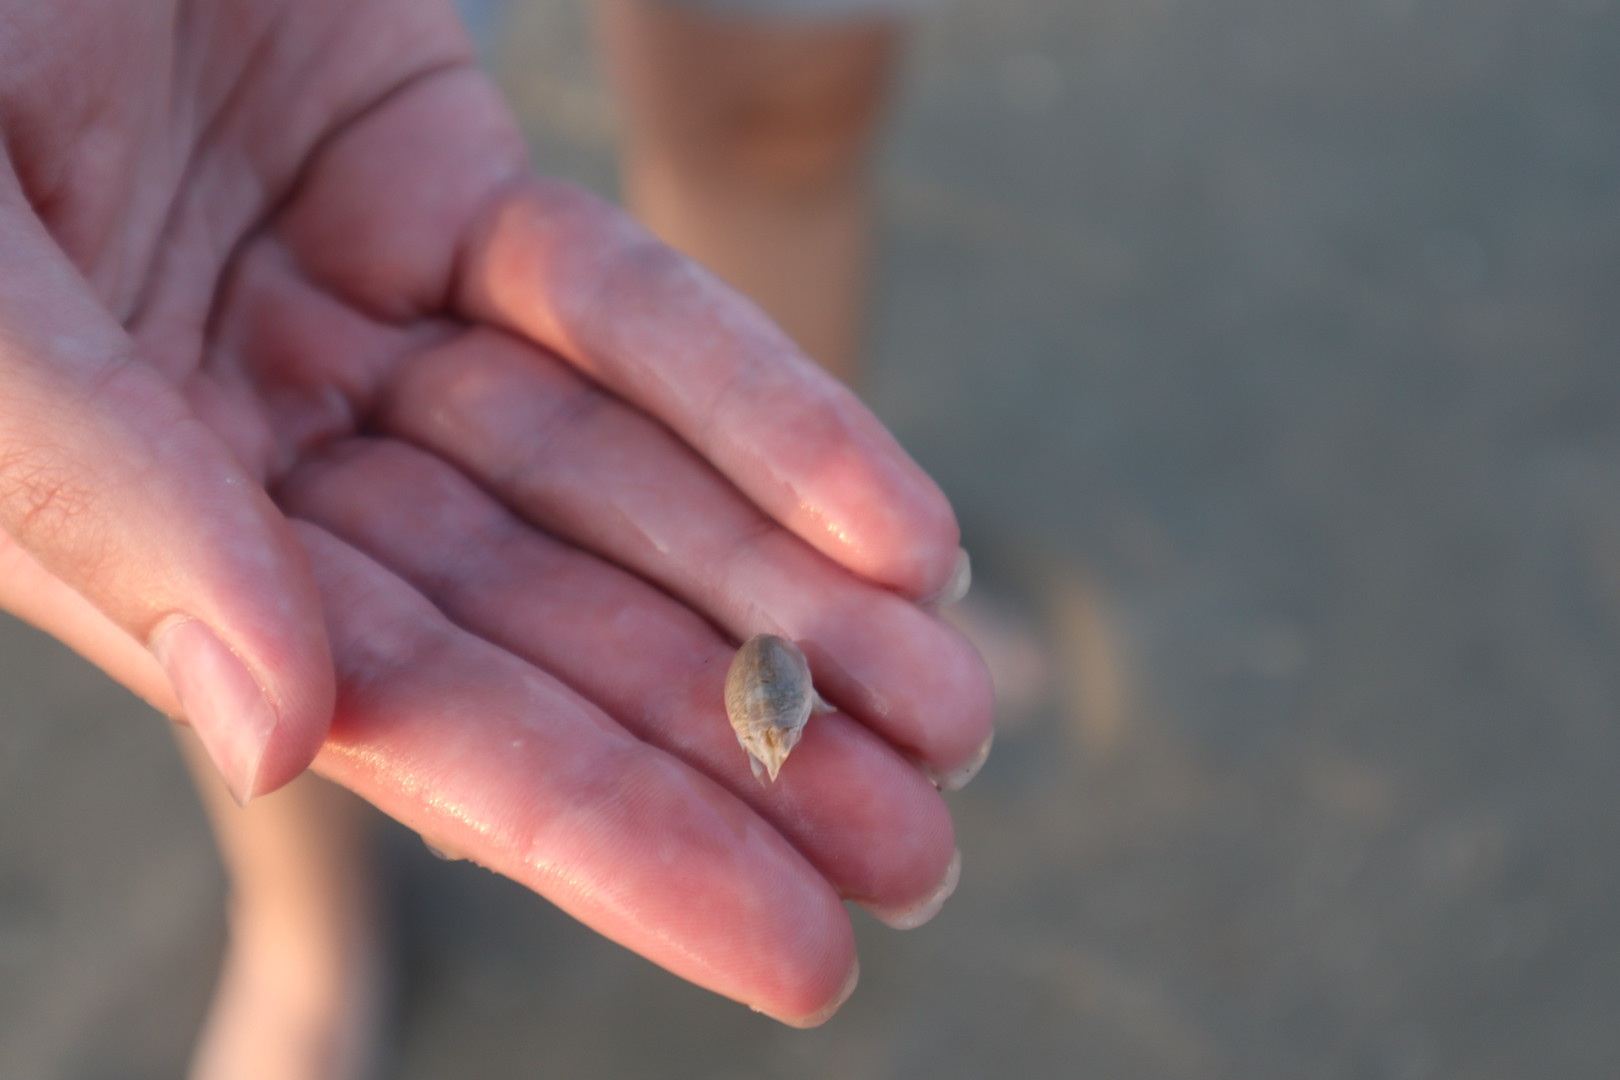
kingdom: Animalia
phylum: Arthropoda
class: Malacostraca
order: Decapoda
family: Hippidae
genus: Emerita
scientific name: Emerita talpoida
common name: Atlantic sand crab
